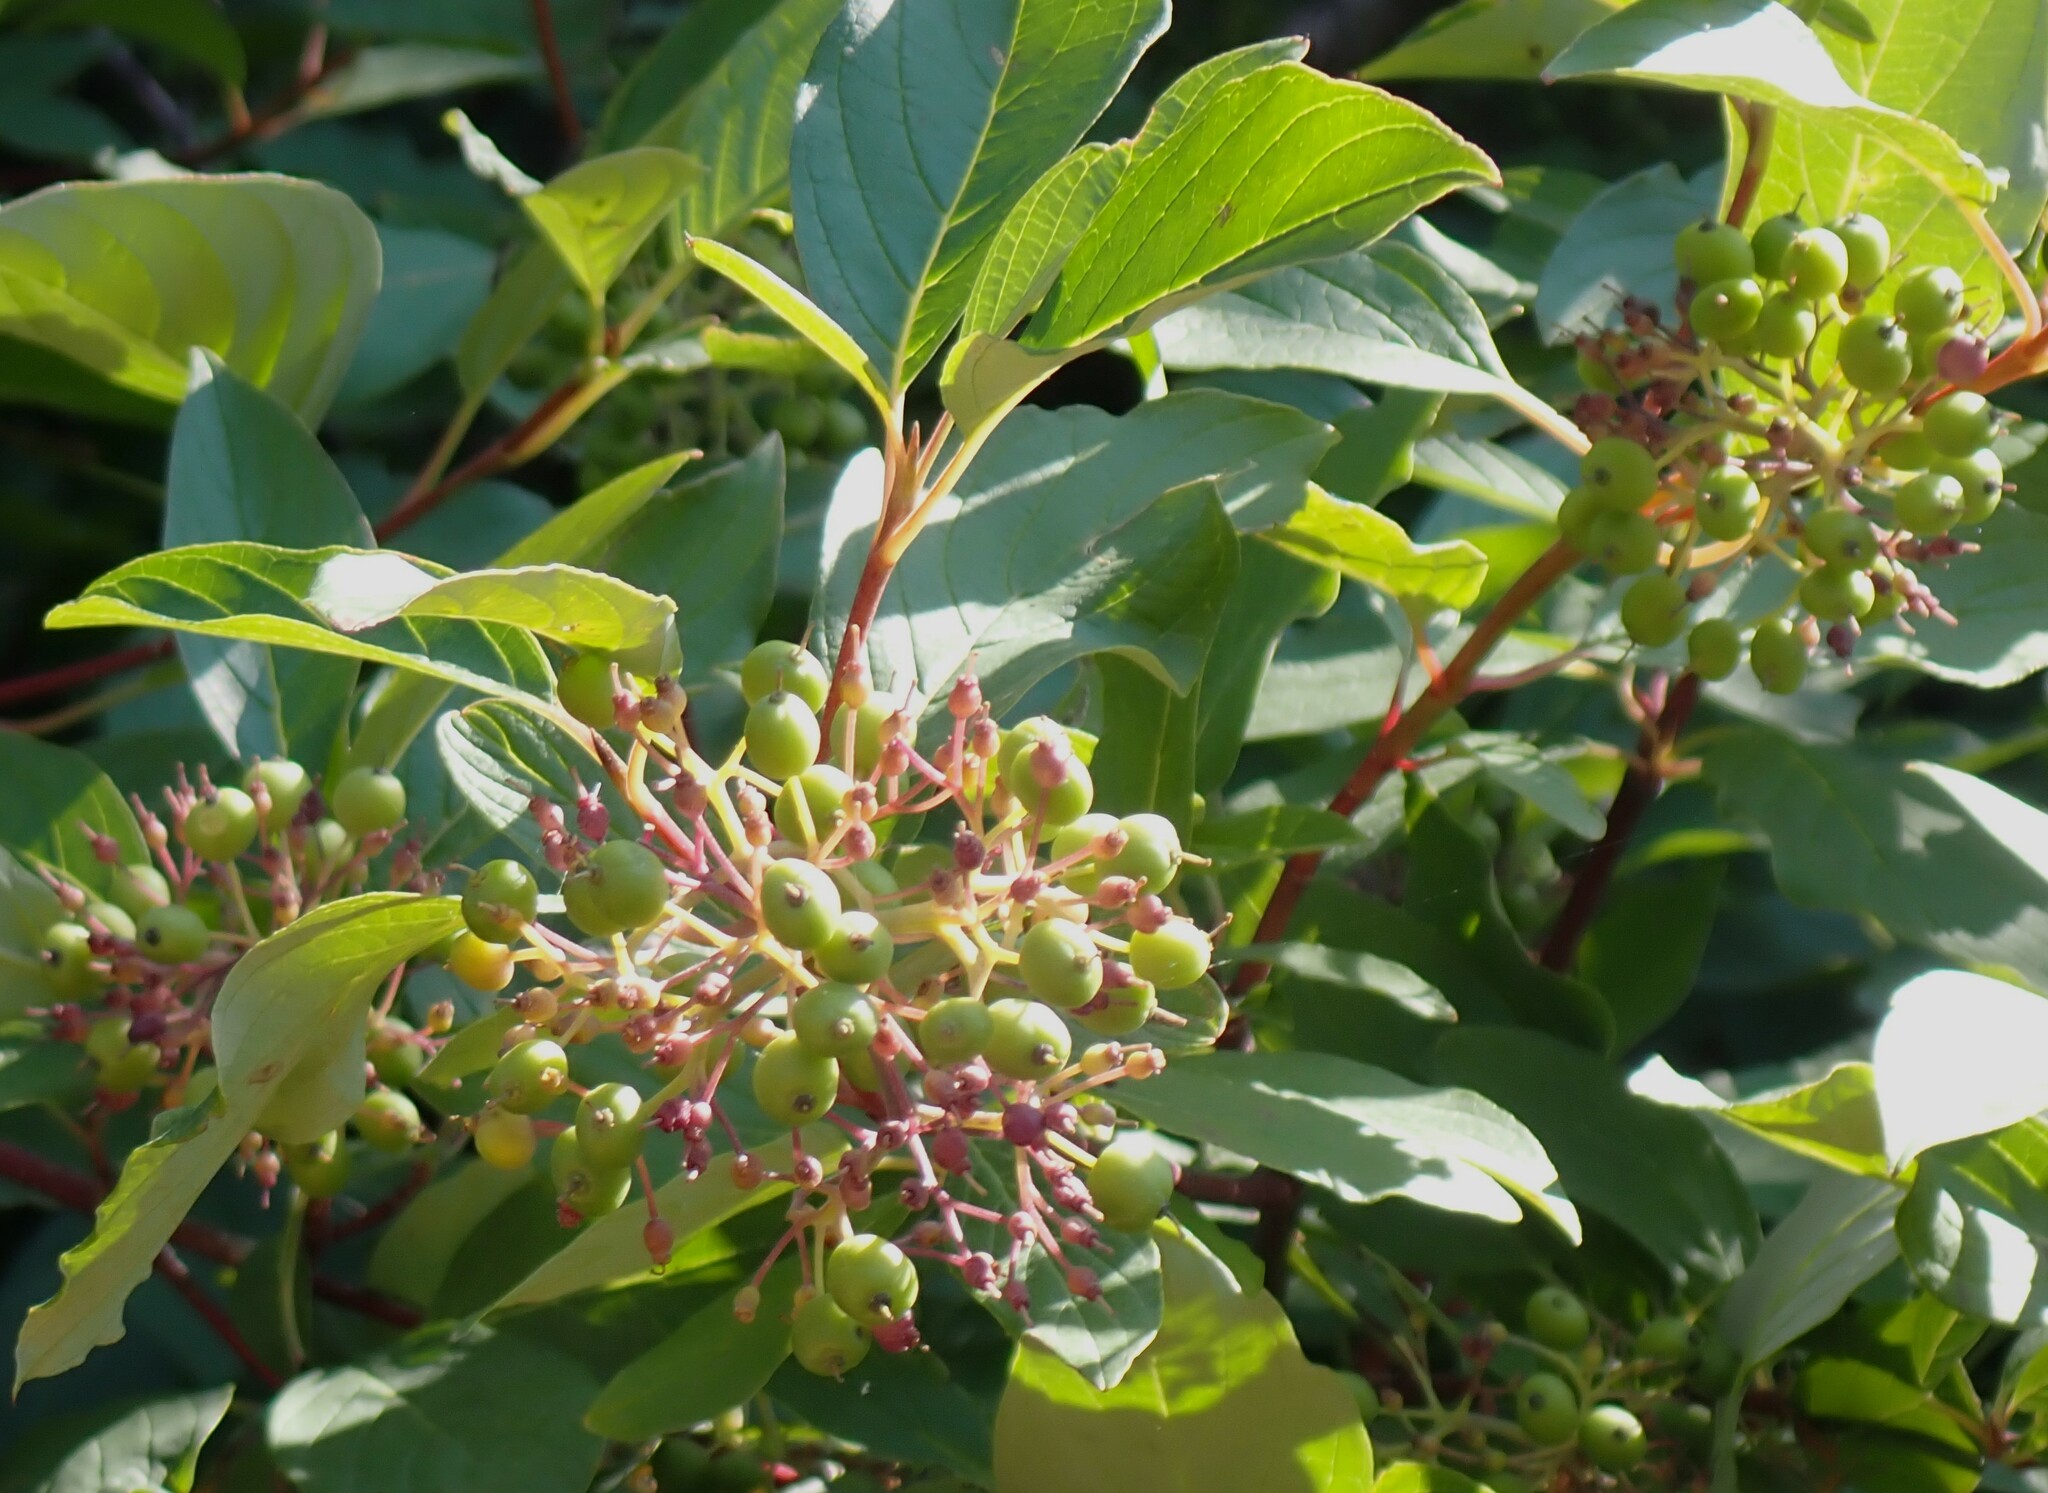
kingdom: Plantae
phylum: Tracheophyta
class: Magnoliopsida
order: Cornales
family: Cornaceae
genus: Cornus
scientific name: Cornus sericea
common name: Red-osier dogwood
